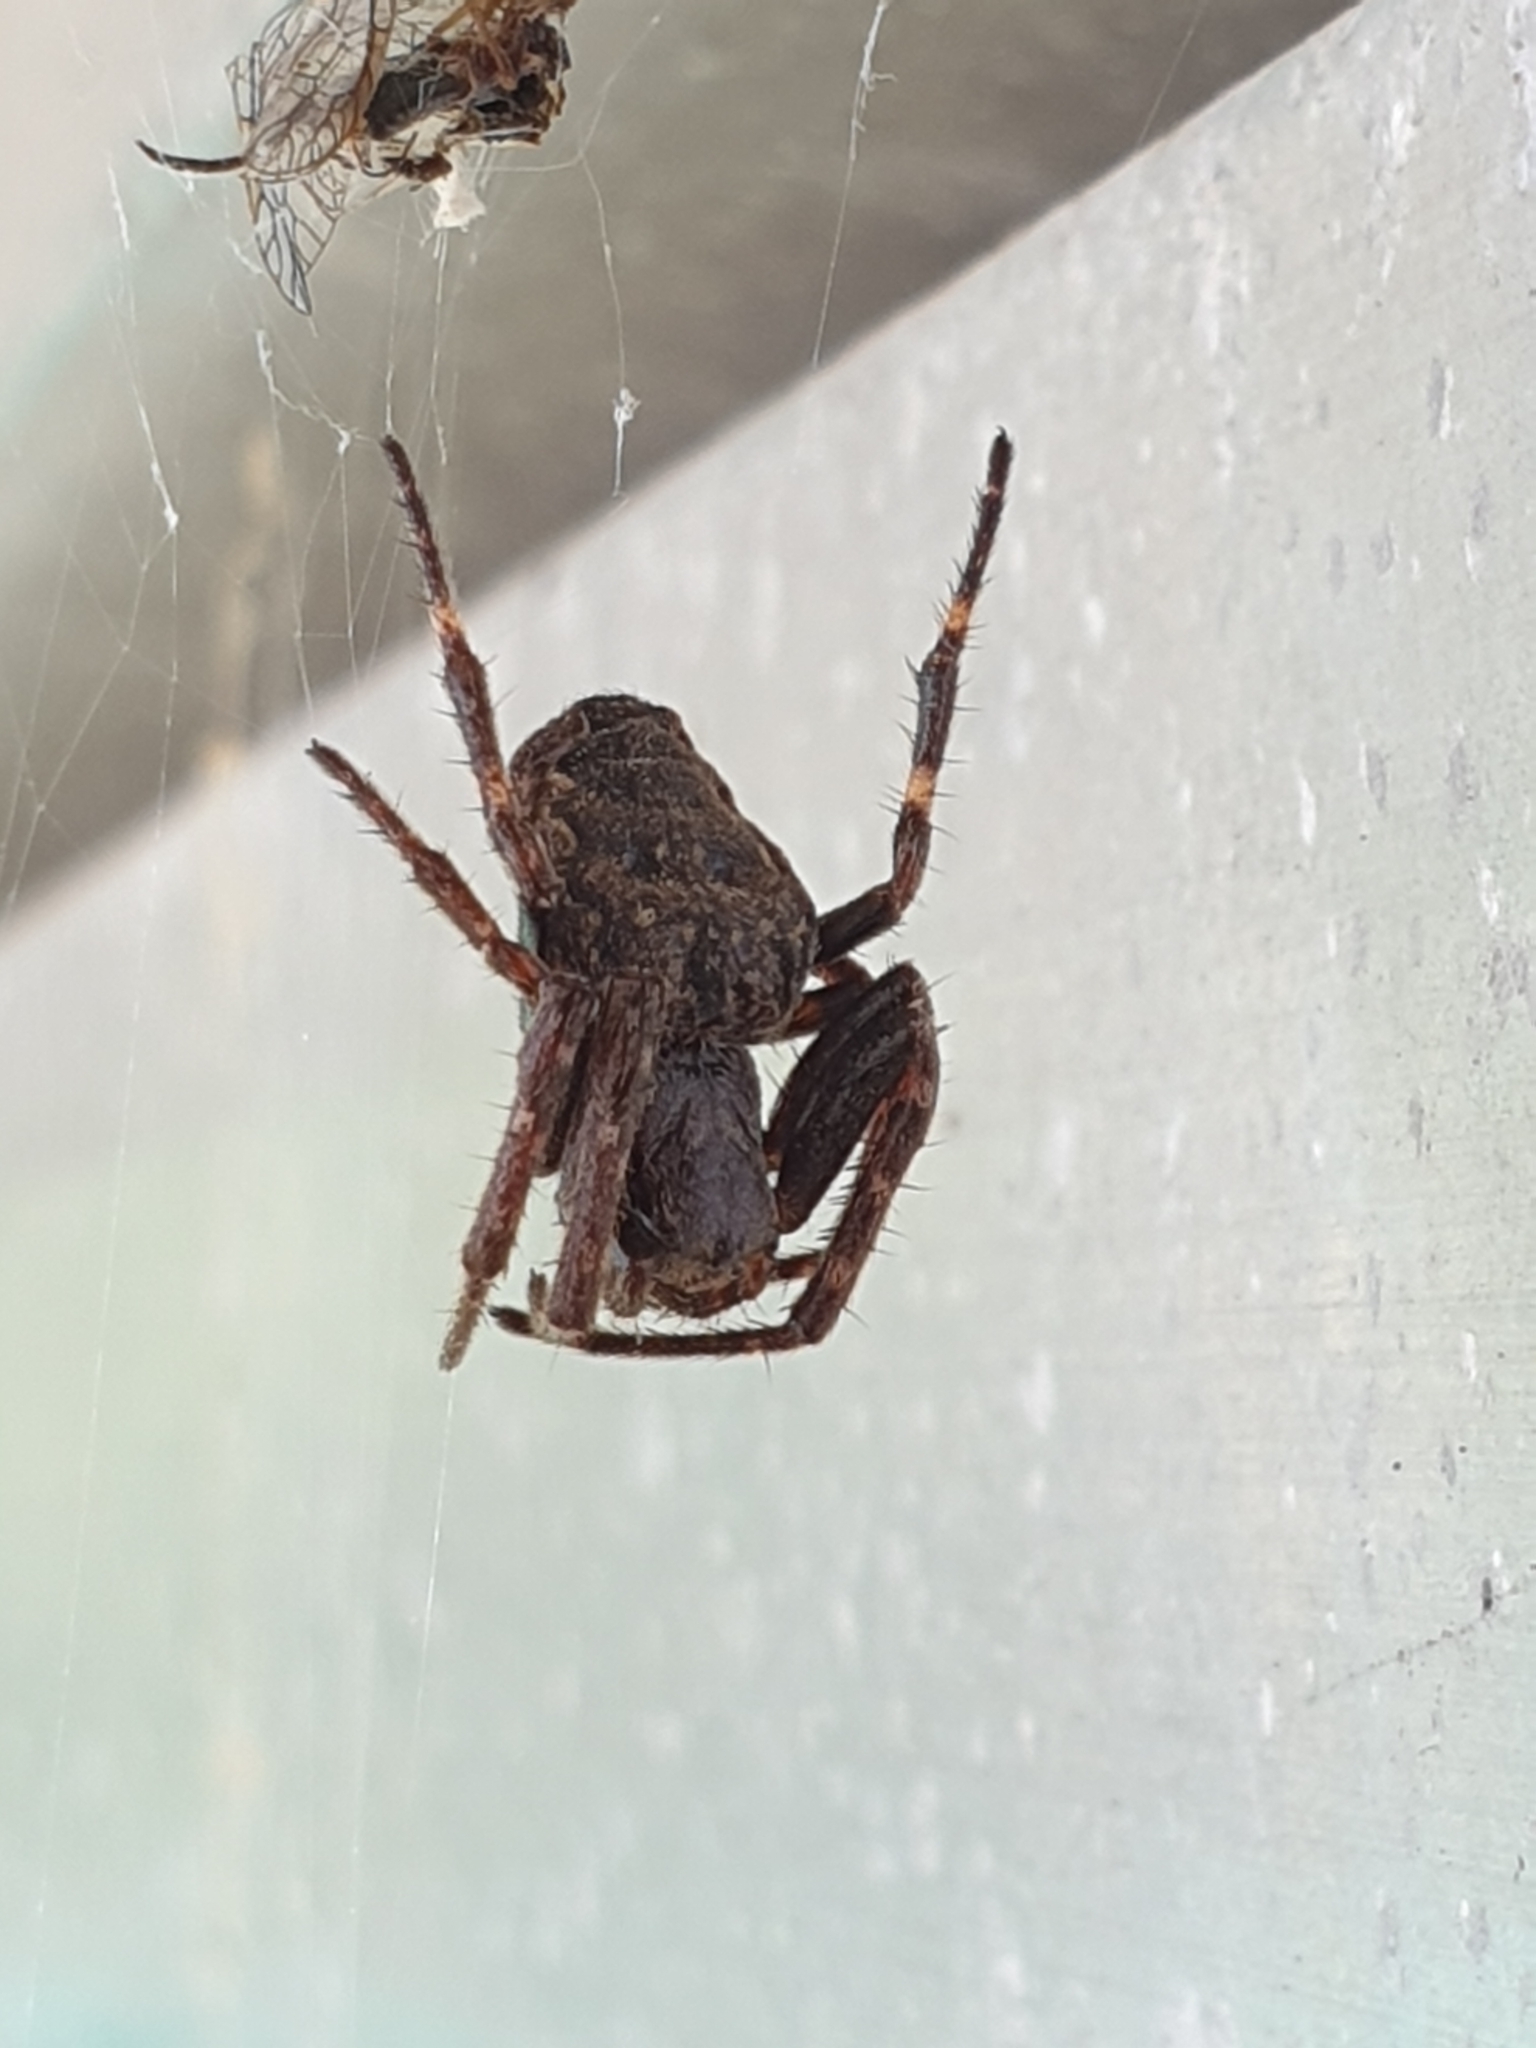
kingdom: Animalia
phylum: Arthropoda
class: Arachnida
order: Araneae
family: Araneidae
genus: Nuctenea
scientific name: Nuctenea umbratica
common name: Toad spider
